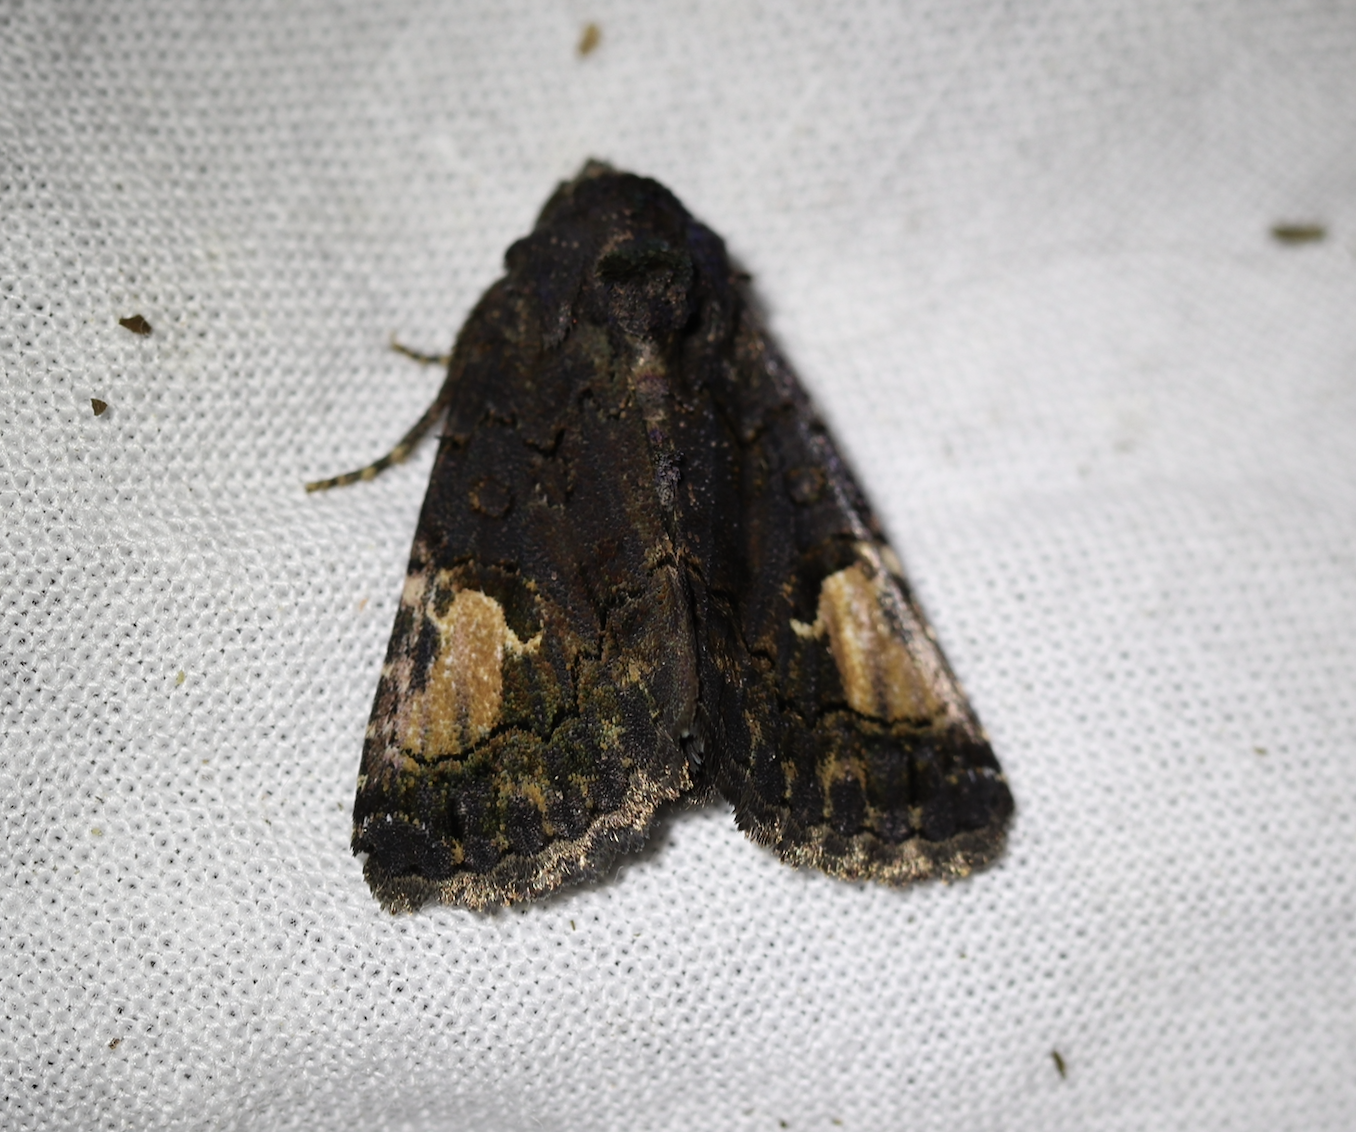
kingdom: Animalia
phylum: Arthropoda
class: Insecta
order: Lepidoptera
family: Noctuidae
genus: Aedia
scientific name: Aedia funesta
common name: The druid
